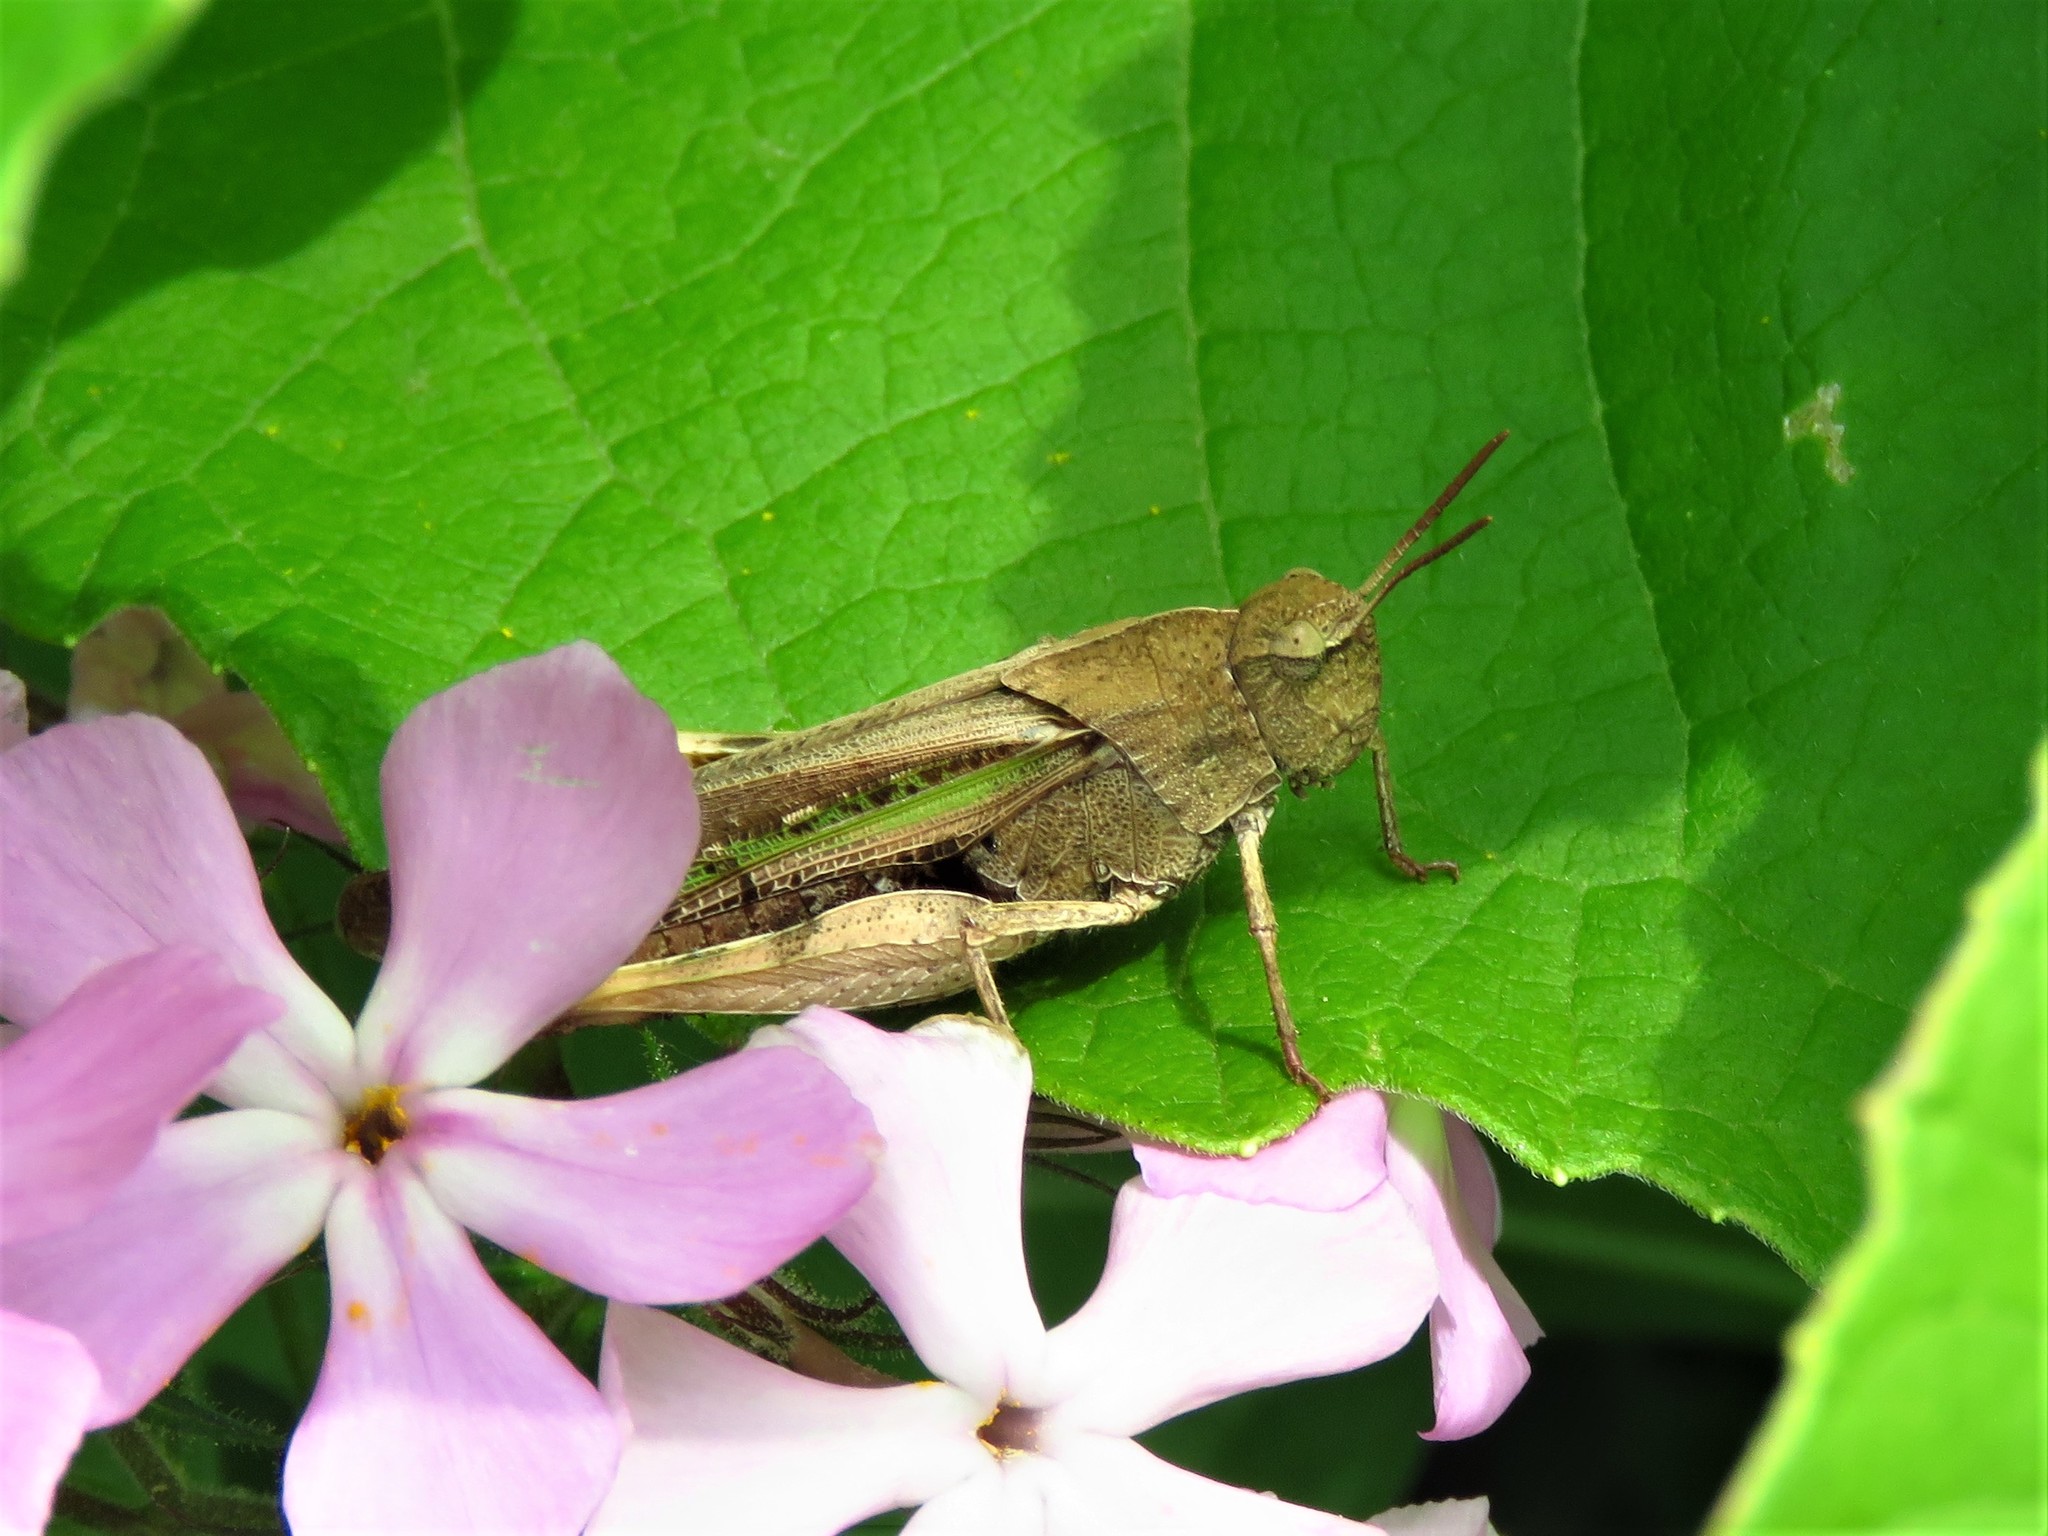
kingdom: Animalia
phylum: Arthropoda
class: Insecta
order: Orthoptera
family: Acrididae
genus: Chortophaga
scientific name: Chortophaga viridifasciata
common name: Green-striped grasshopper
